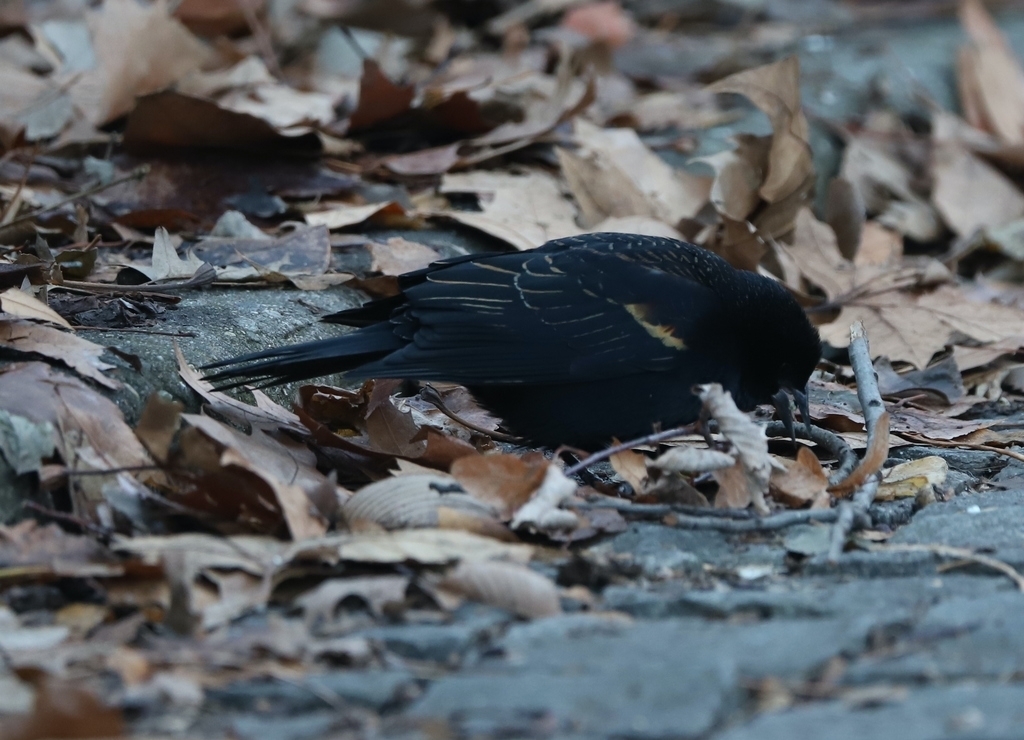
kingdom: Animalia
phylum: Chordata
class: Aves
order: Passeriformes
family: Icteridae
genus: Agelaius
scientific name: Agelaius phoeniceus
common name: Red-winged blackbird
